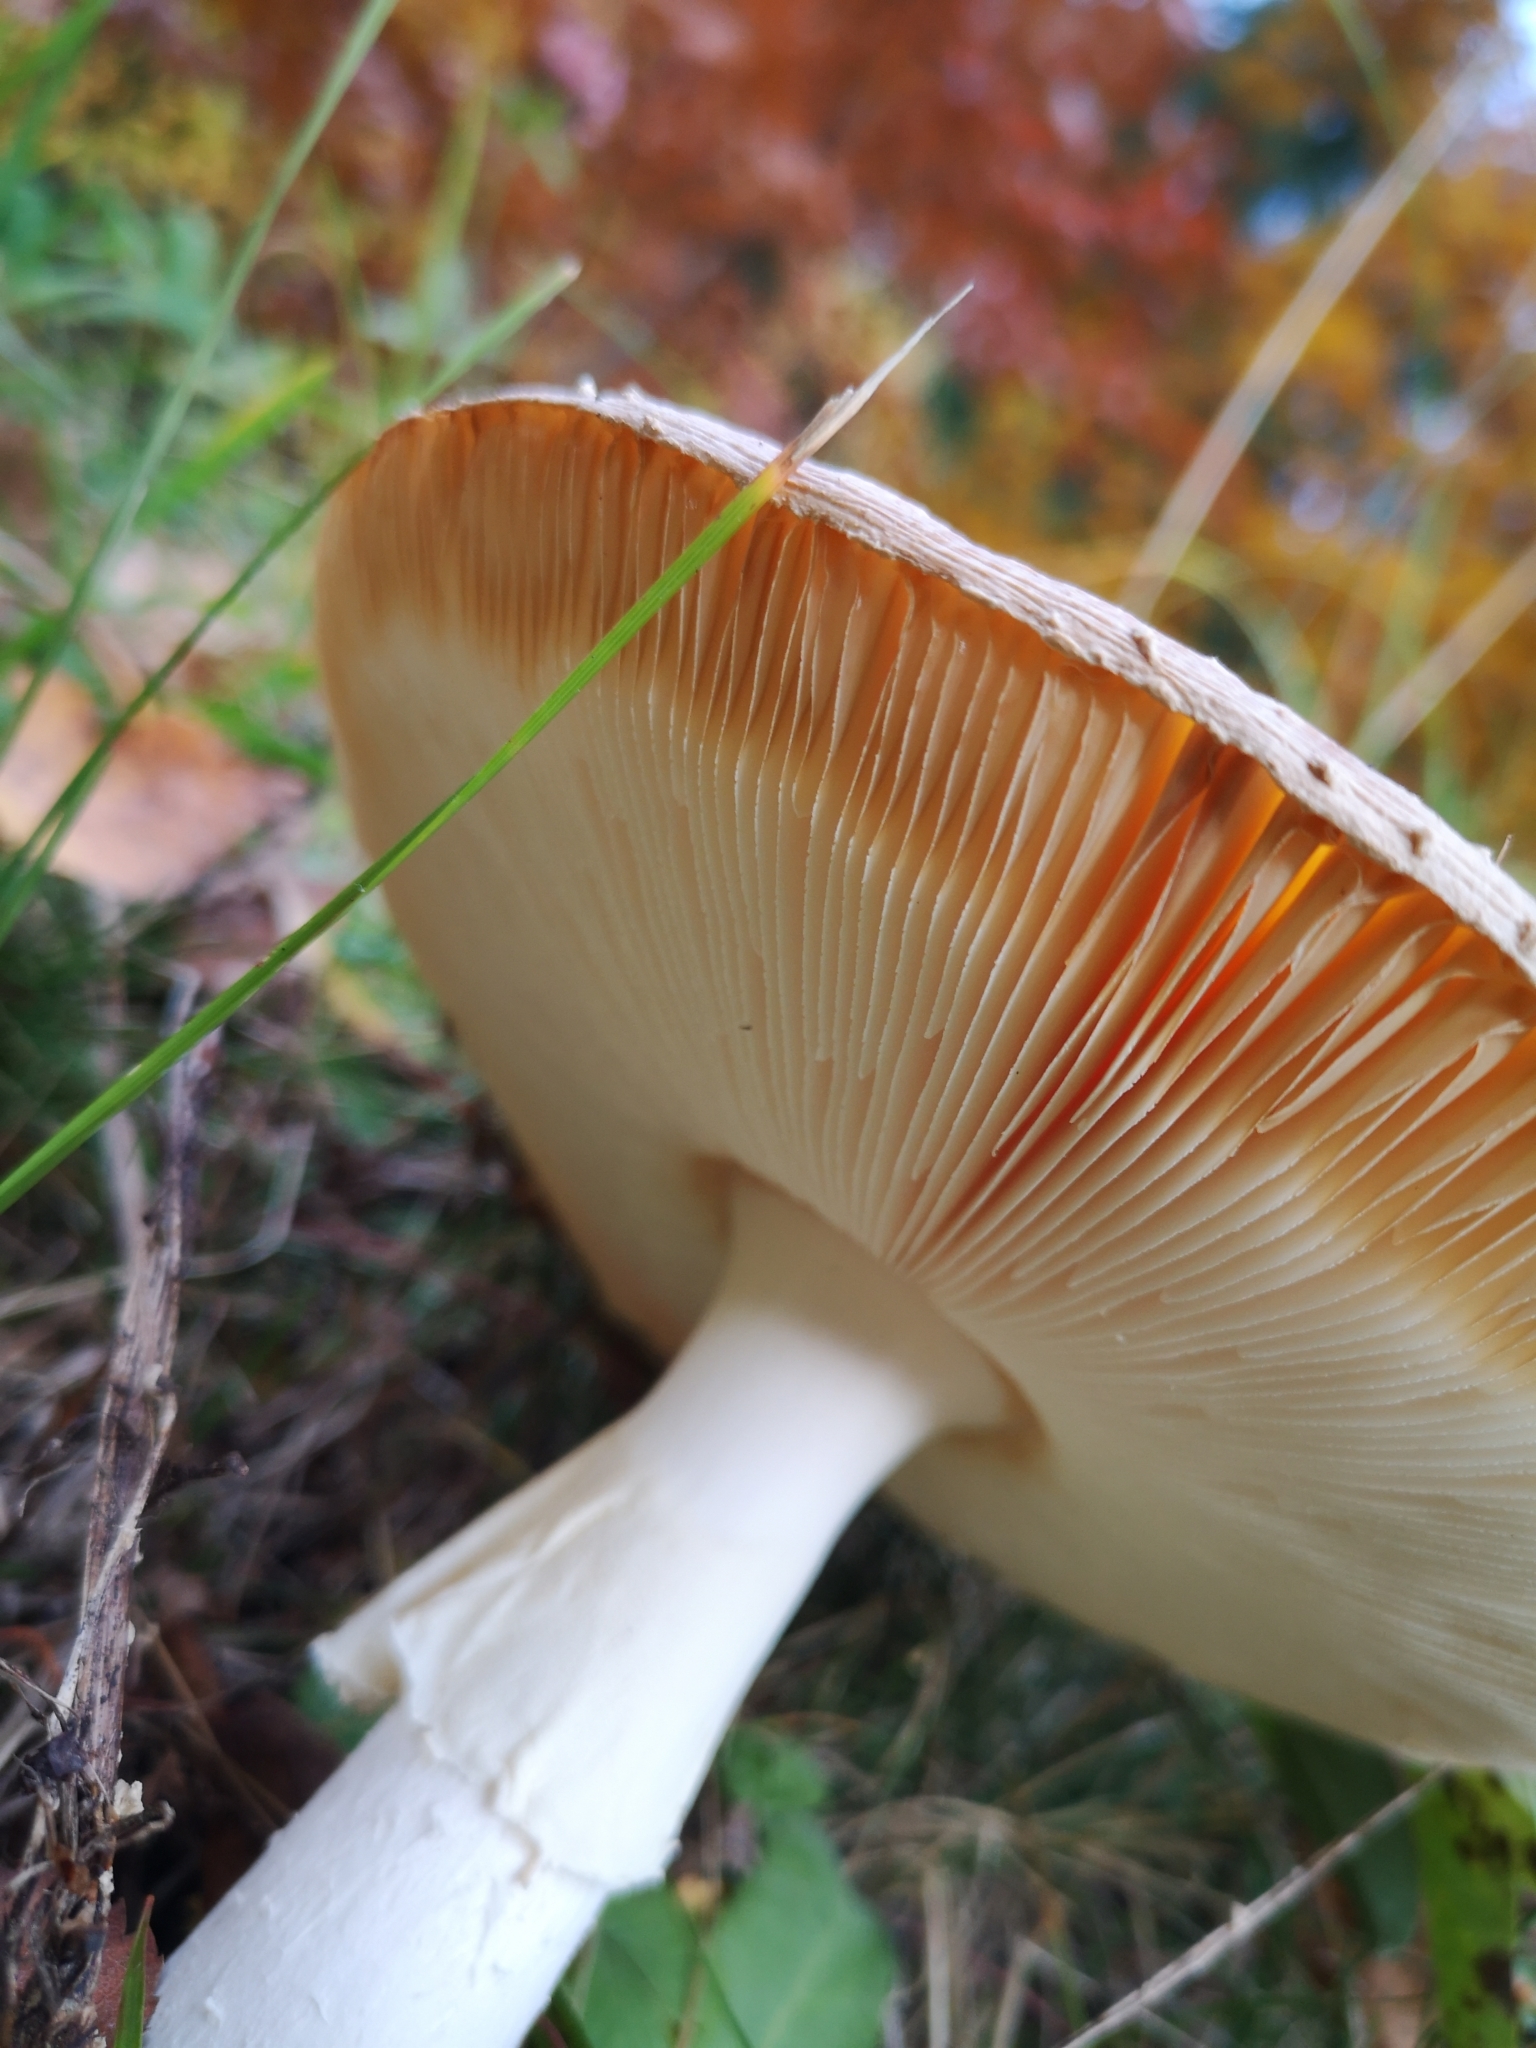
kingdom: Fungi
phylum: Basidiomycota
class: Agaricomycetes
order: Agaricales
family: Amanitaceae
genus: Amanita
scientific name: Amanita muscaria
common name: Fly agaric
